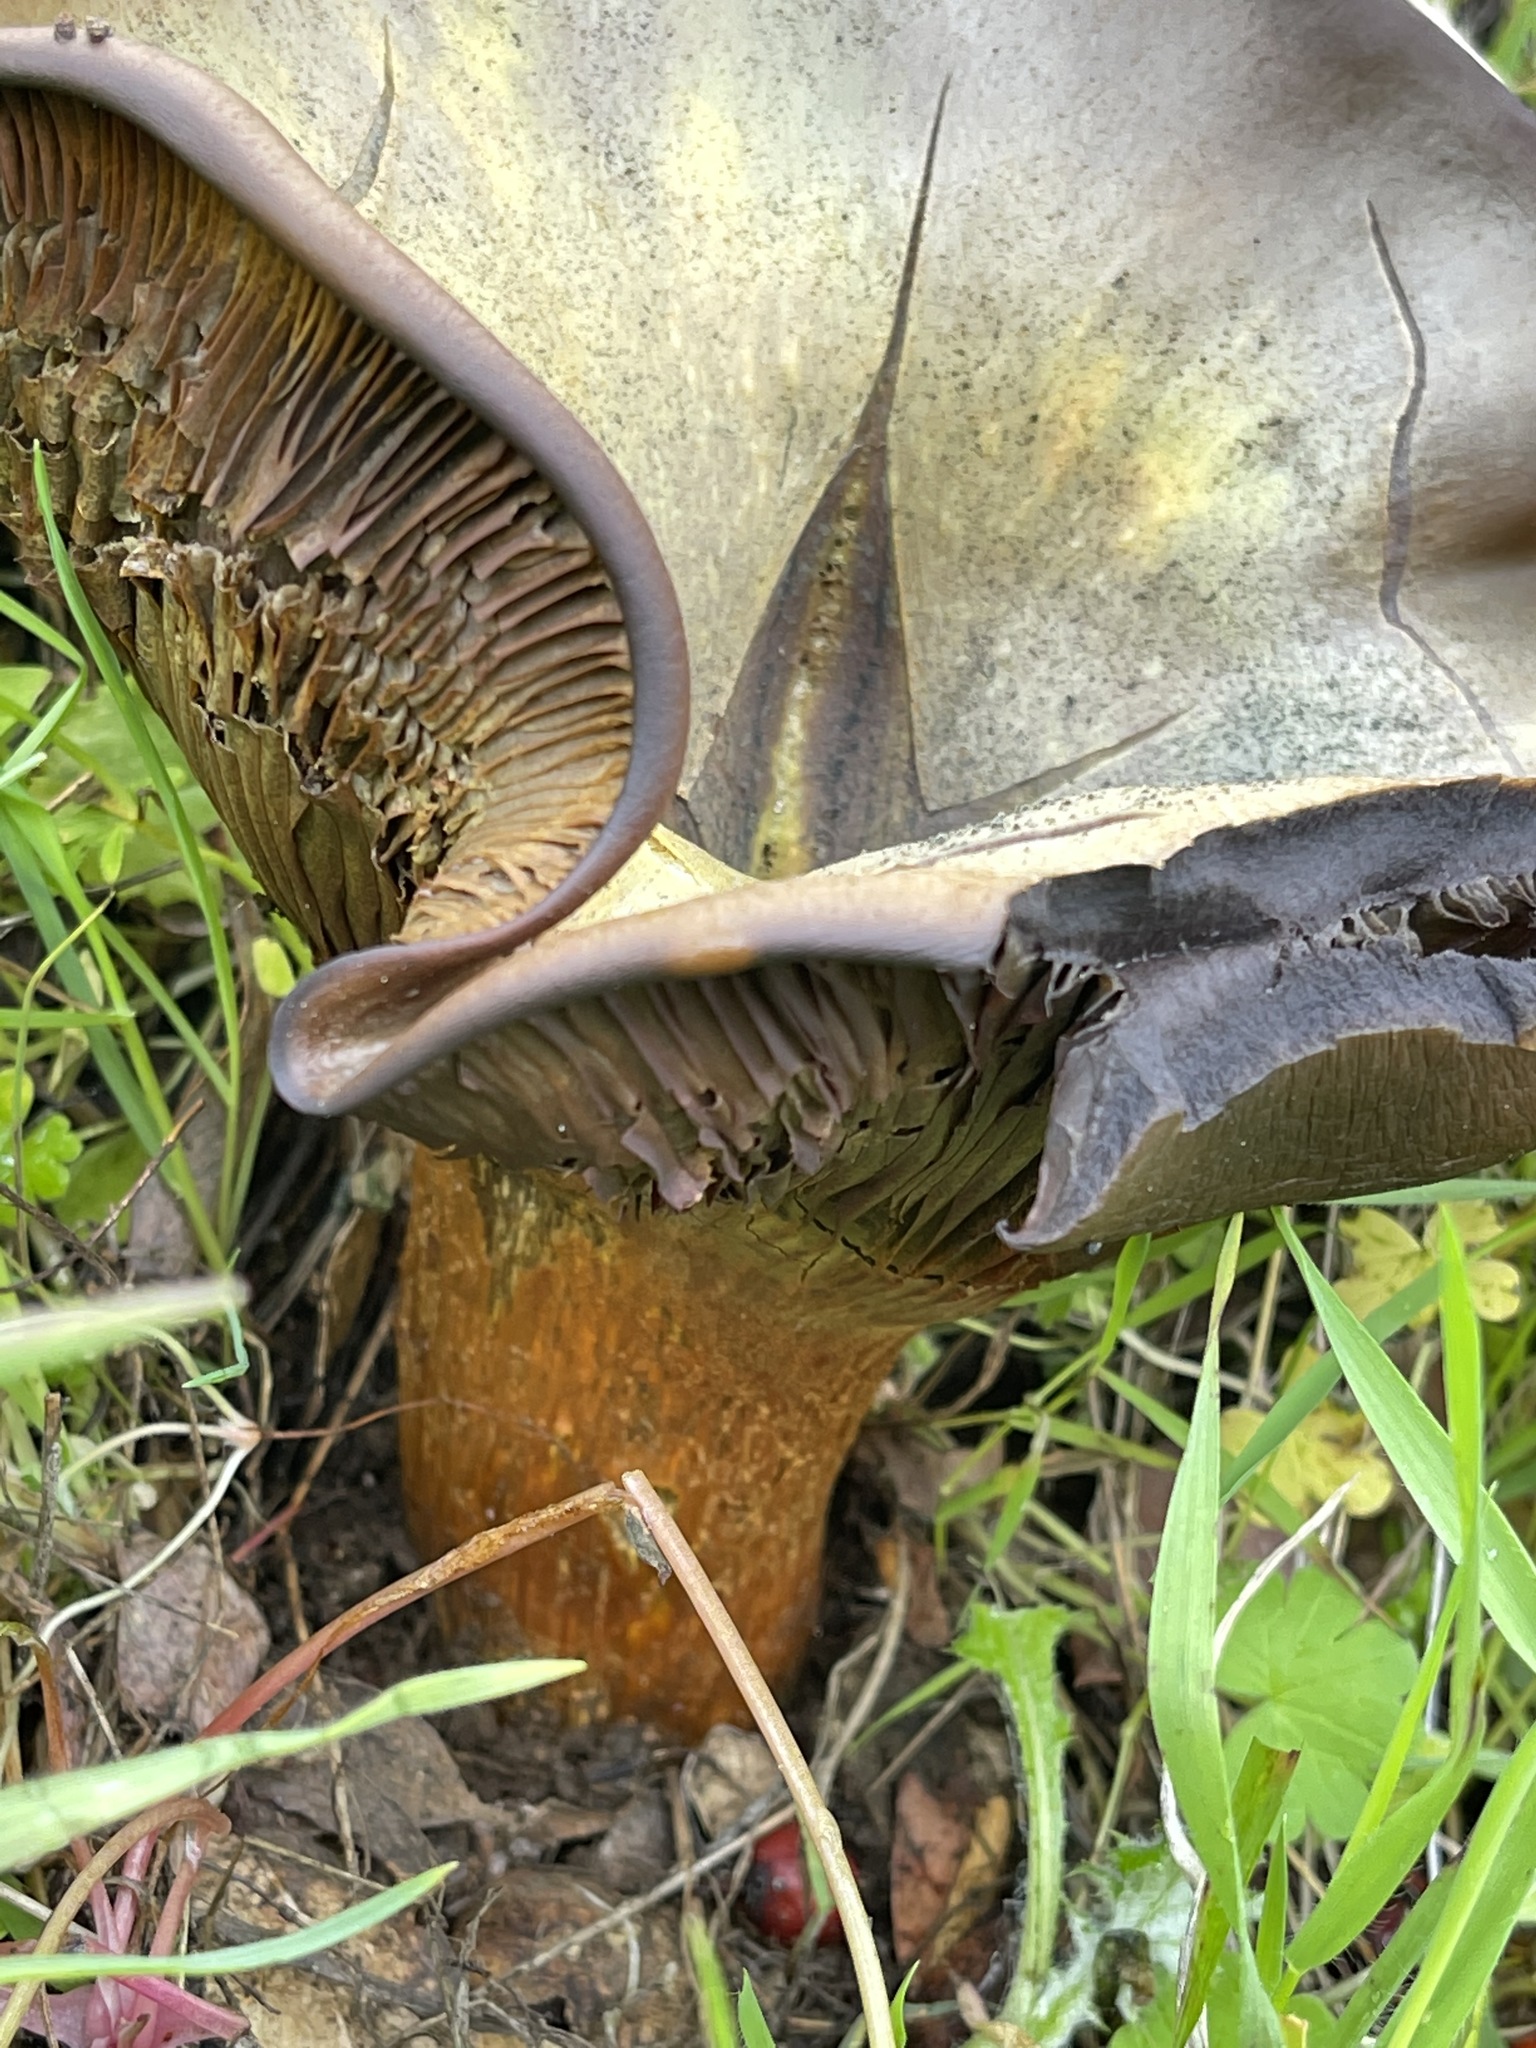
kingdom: Fungi
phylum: Basidiomycota
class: Agaricomycetes
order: Agaricales
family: Omphalotaceae
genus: Omphalotus
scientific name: Omphalotus olivascens
